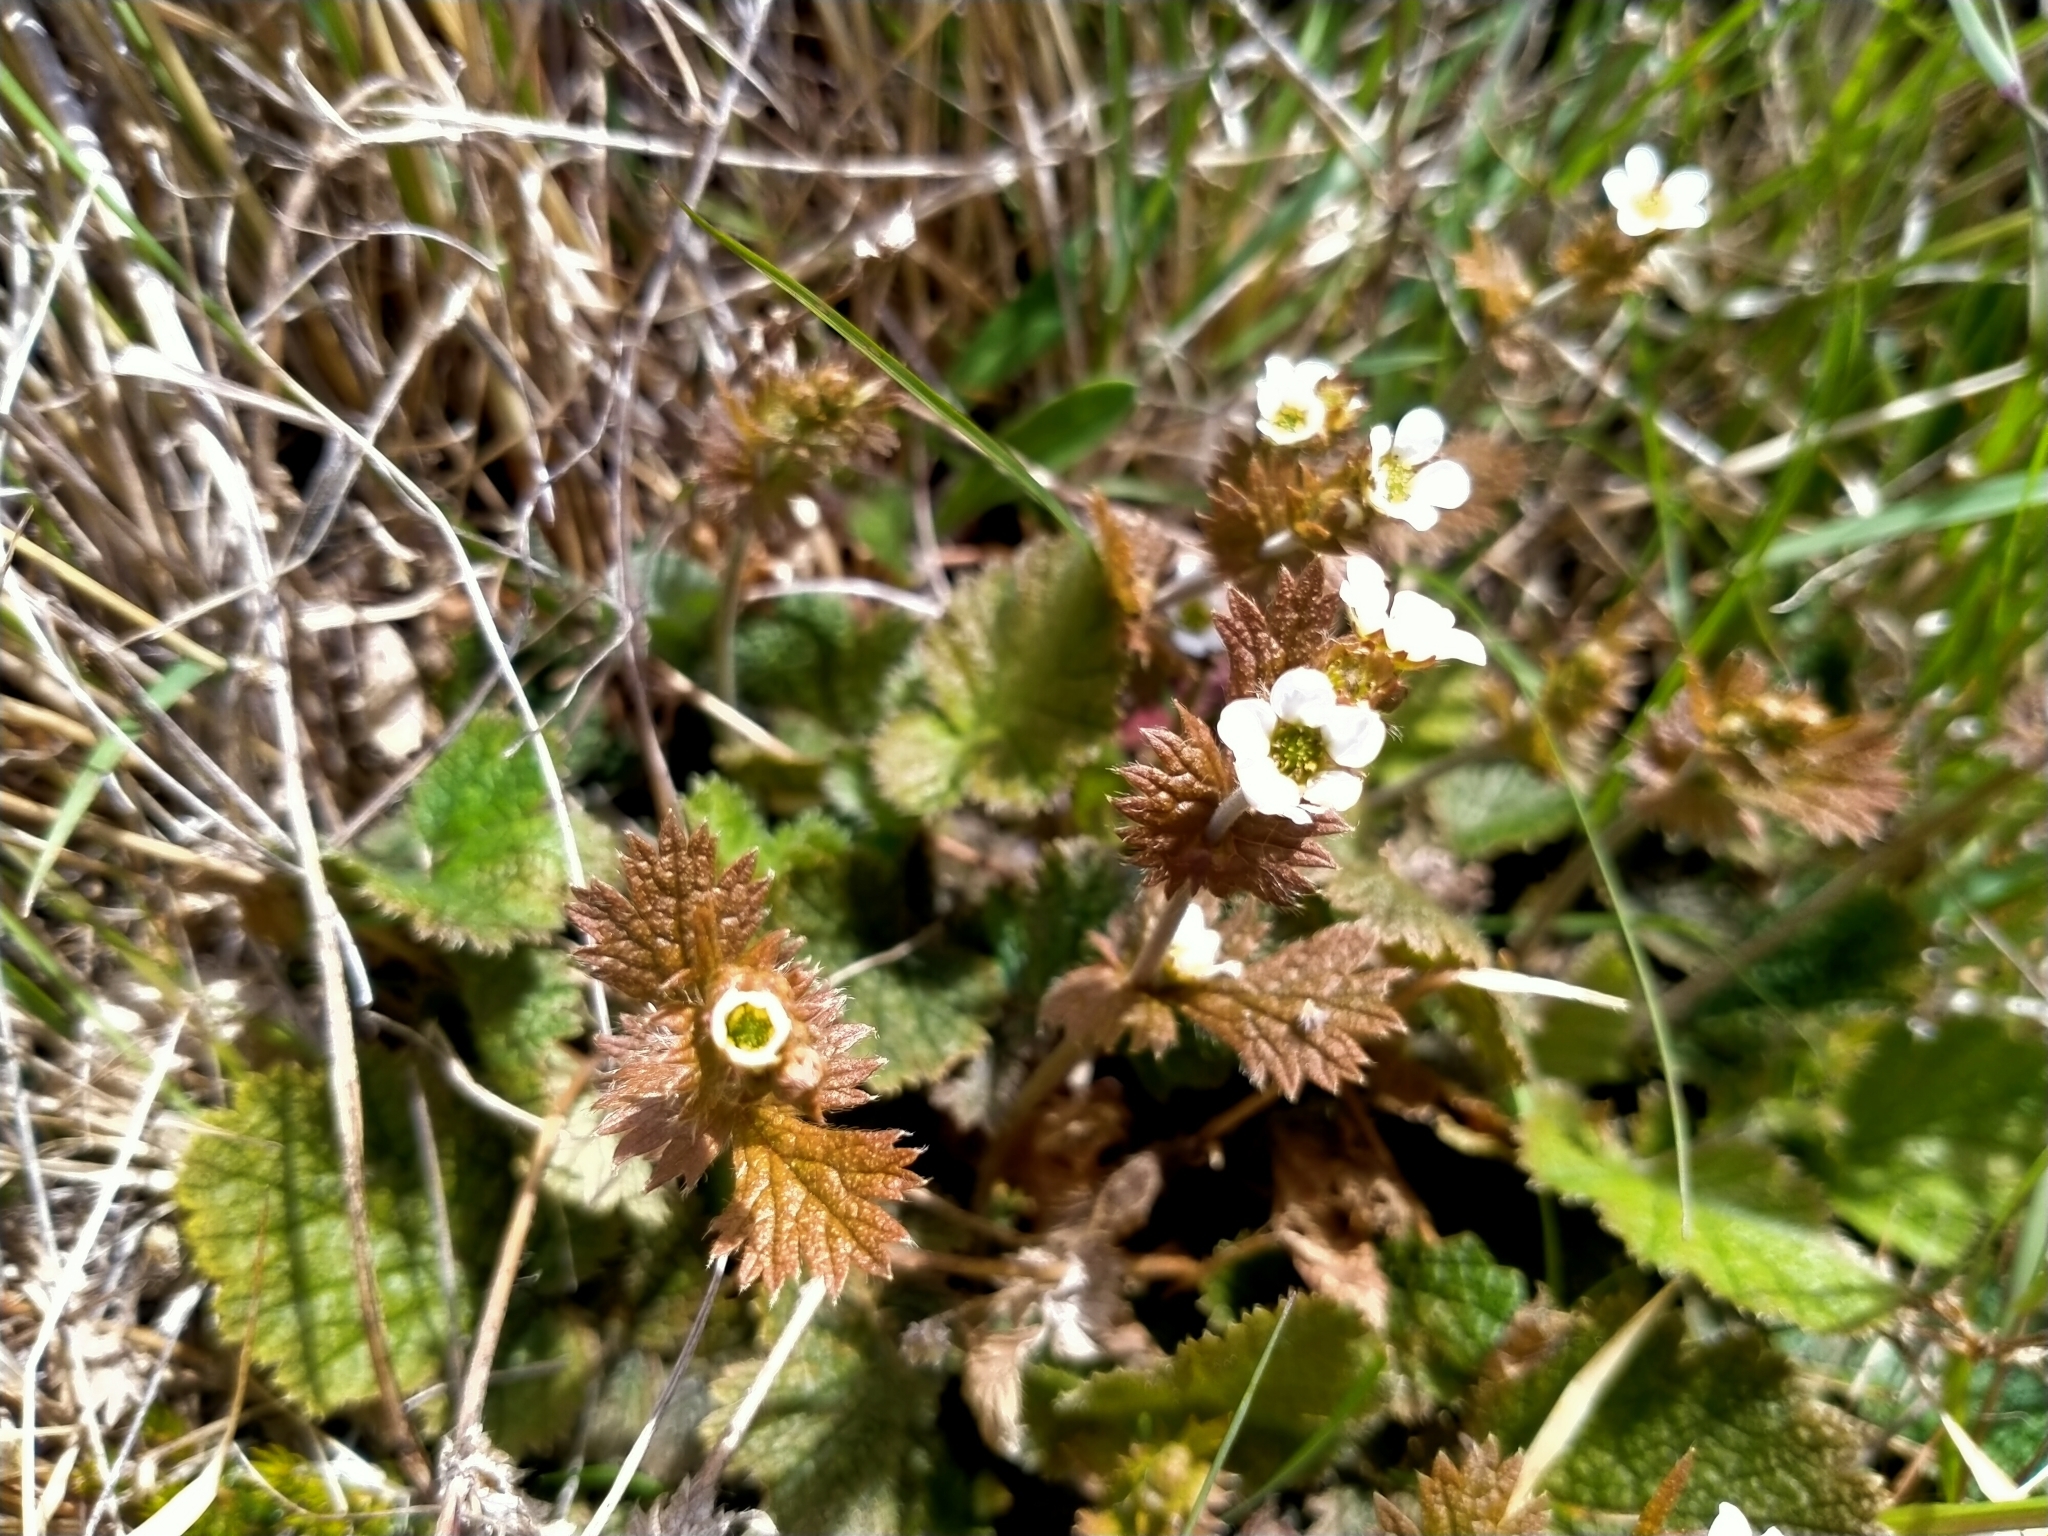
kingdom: Plantae
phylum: Tracheophyta
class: Magnoliopsida
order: Rosales
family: Rosaceae
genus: Geum
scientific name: Geum leiospermum
